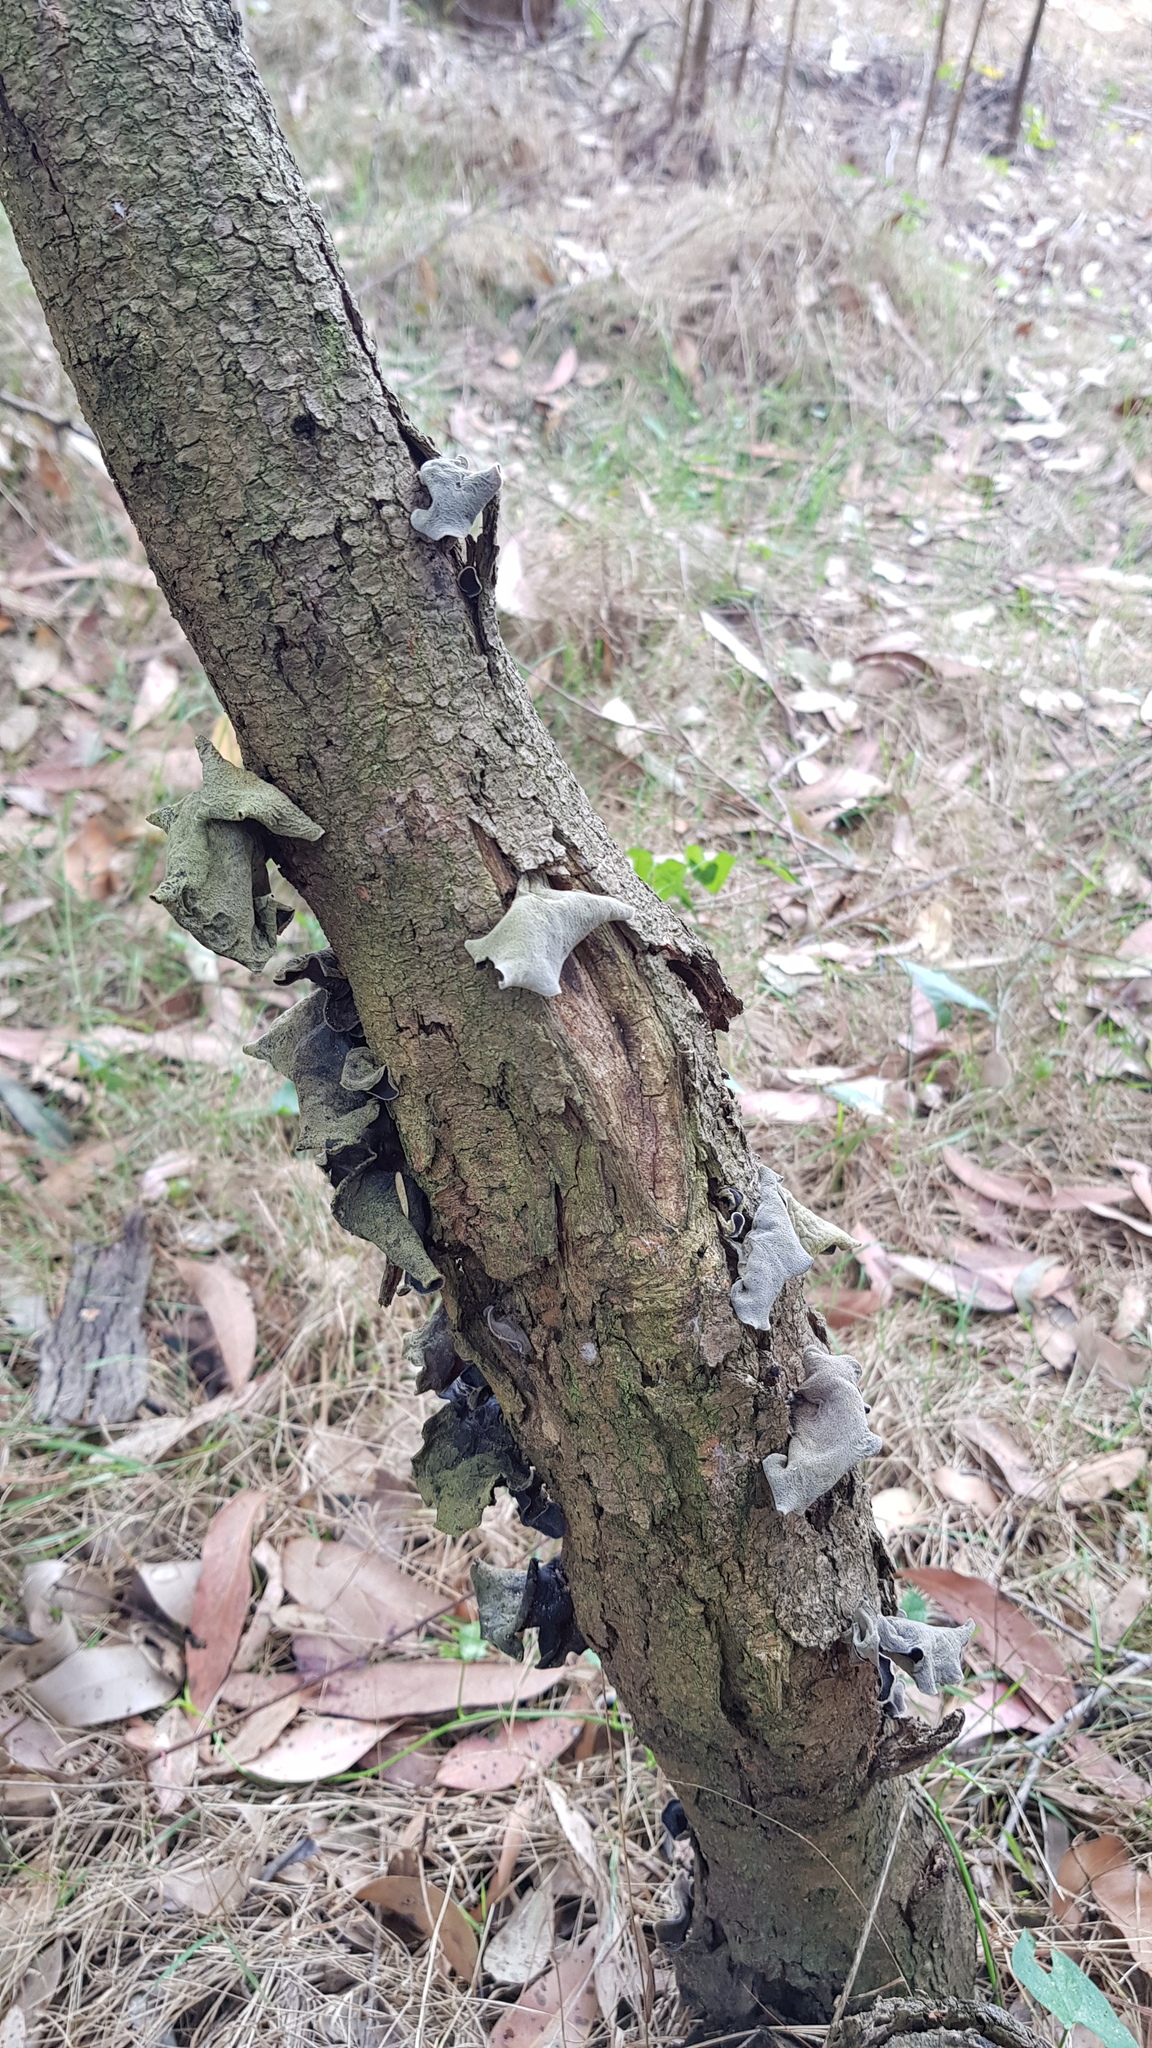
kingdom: Fungi
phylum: Basidiomycota
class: Agaricomycetes
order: Auriculariales
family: Auriculariaceae
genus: Auricularia
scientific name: Auricularia cornea
